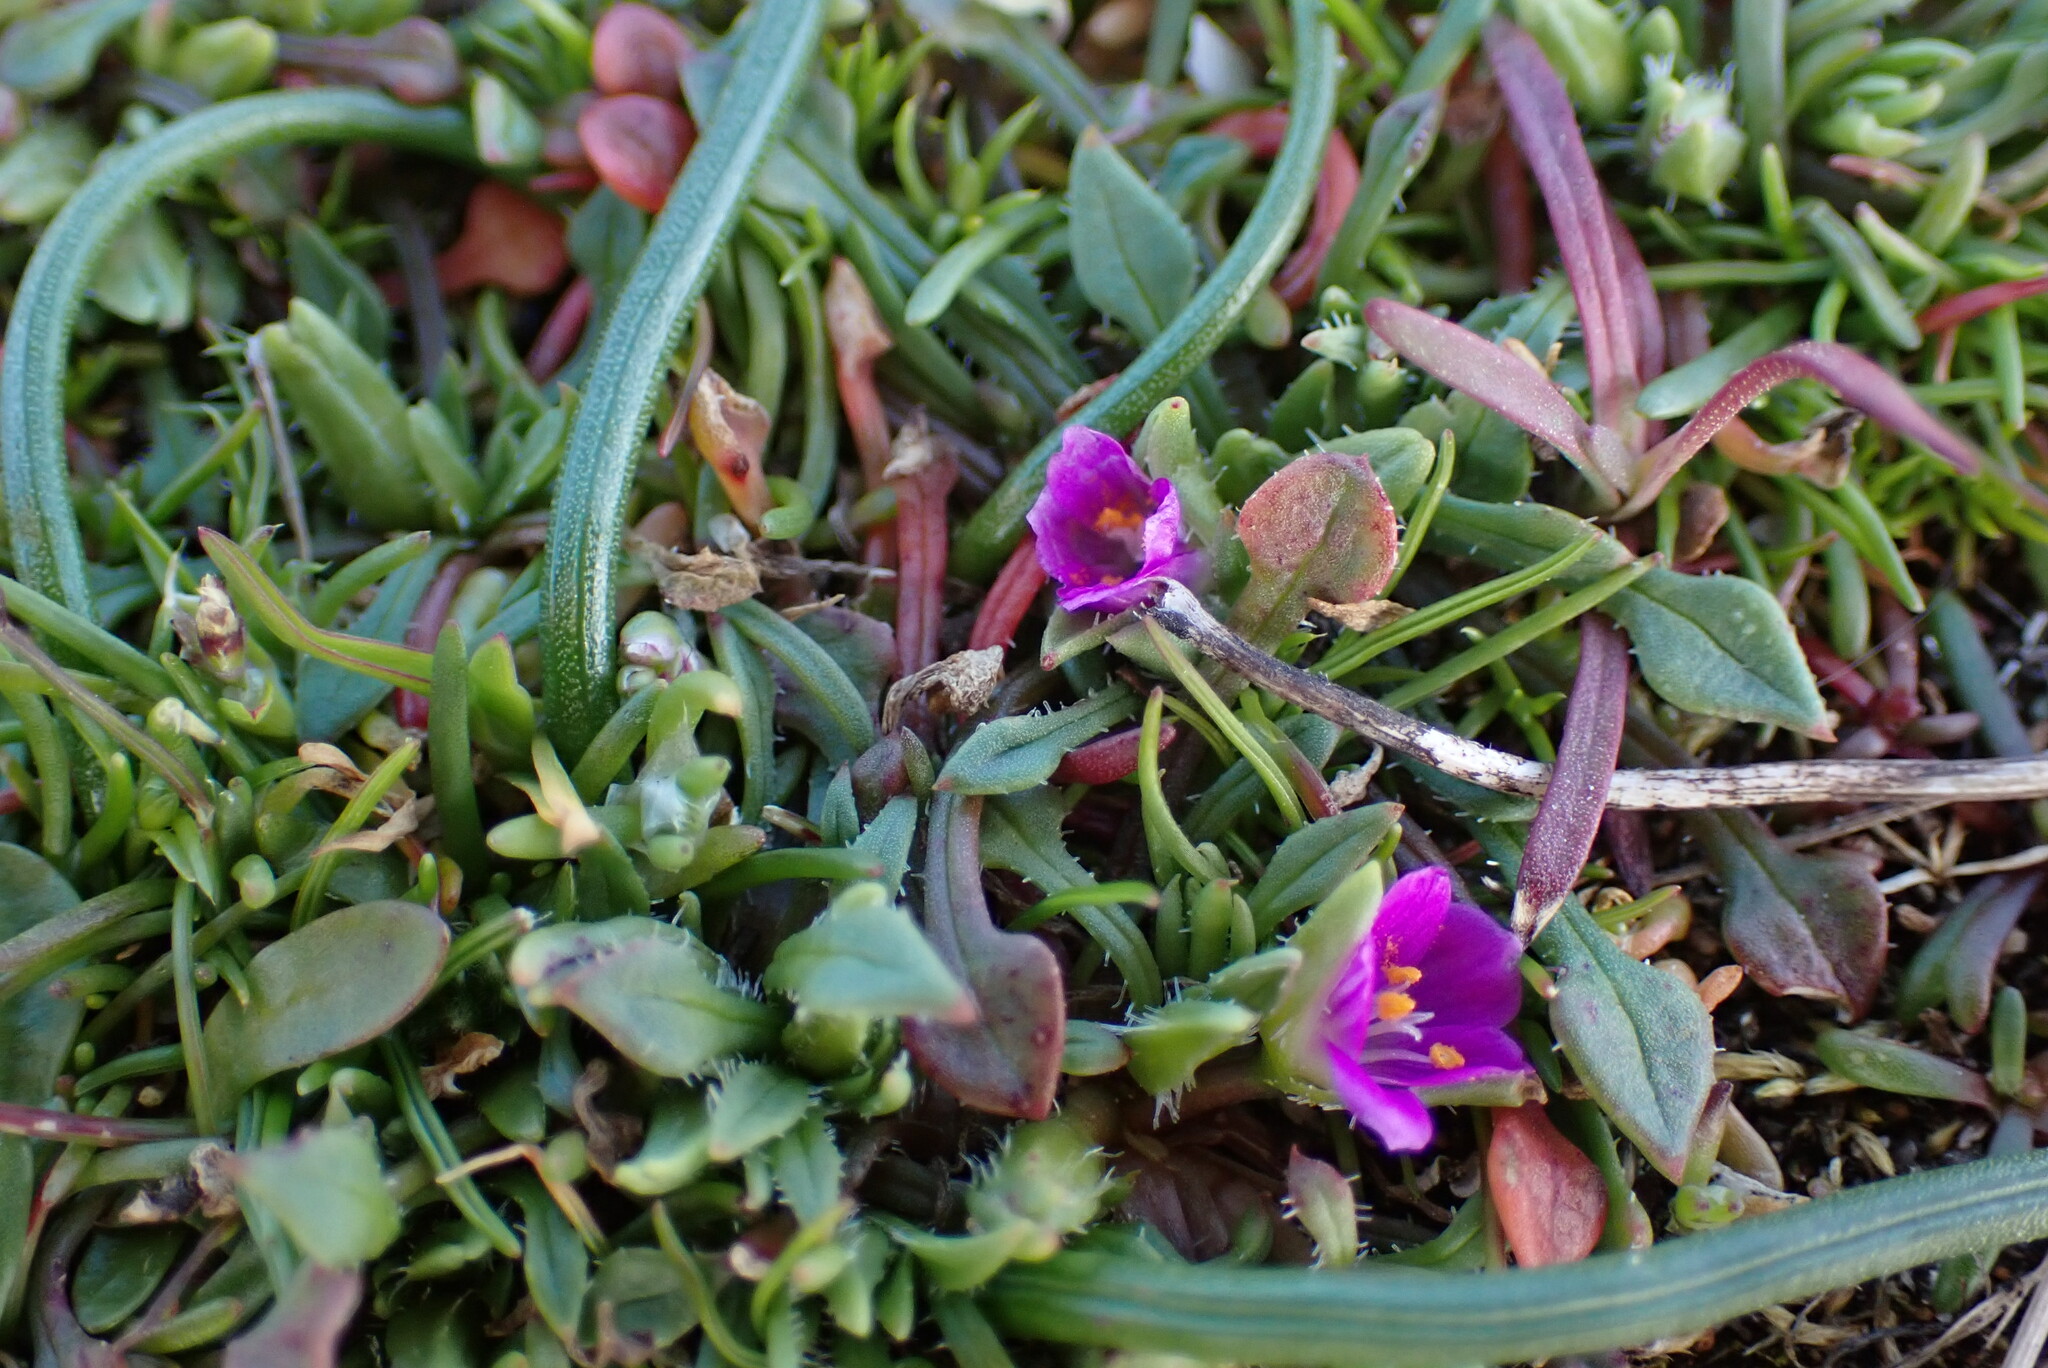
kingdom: Plantae
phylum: Tracheophyta
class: Magnoliopsida
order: Caryophyllales
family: Montiaceae
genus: Calandrinia
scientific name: Calandrinia menziesii
